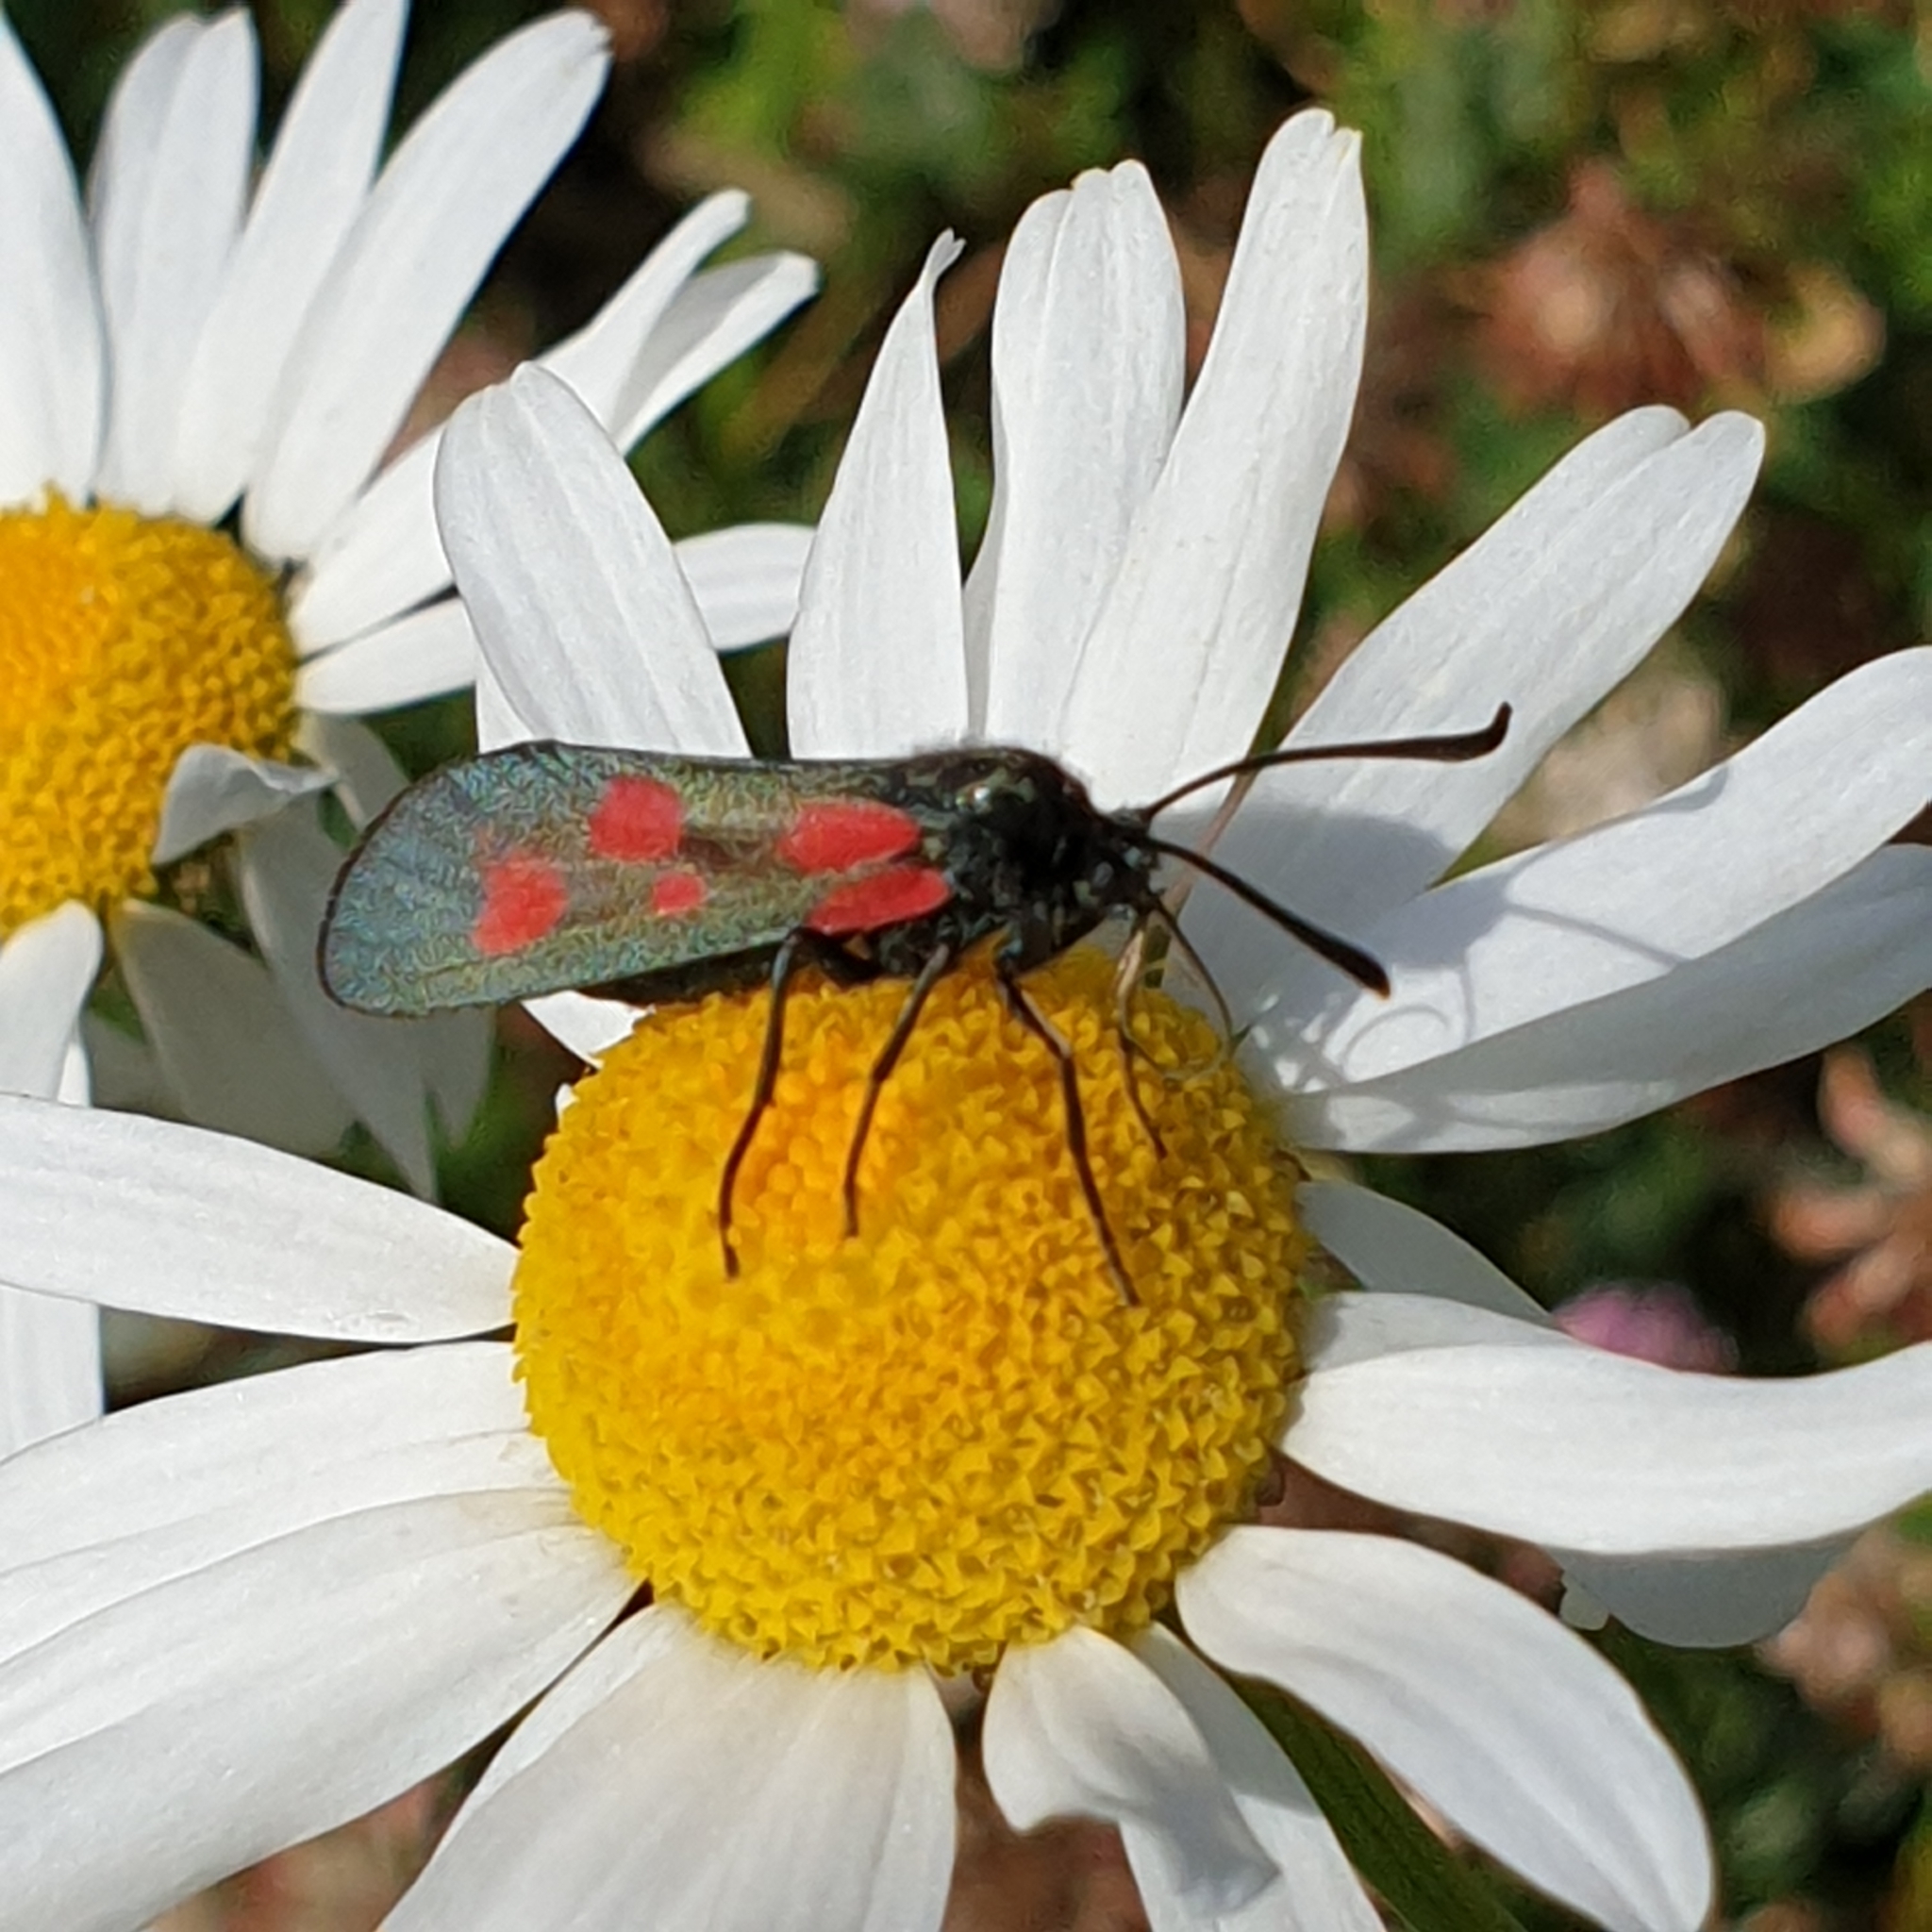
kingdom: Animalia
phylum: Arthropoda
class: Insecta
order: Lepidoptera
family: Zygaenidae
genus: Zygaena
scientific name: Zygaena viciae
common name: New forest burnet
